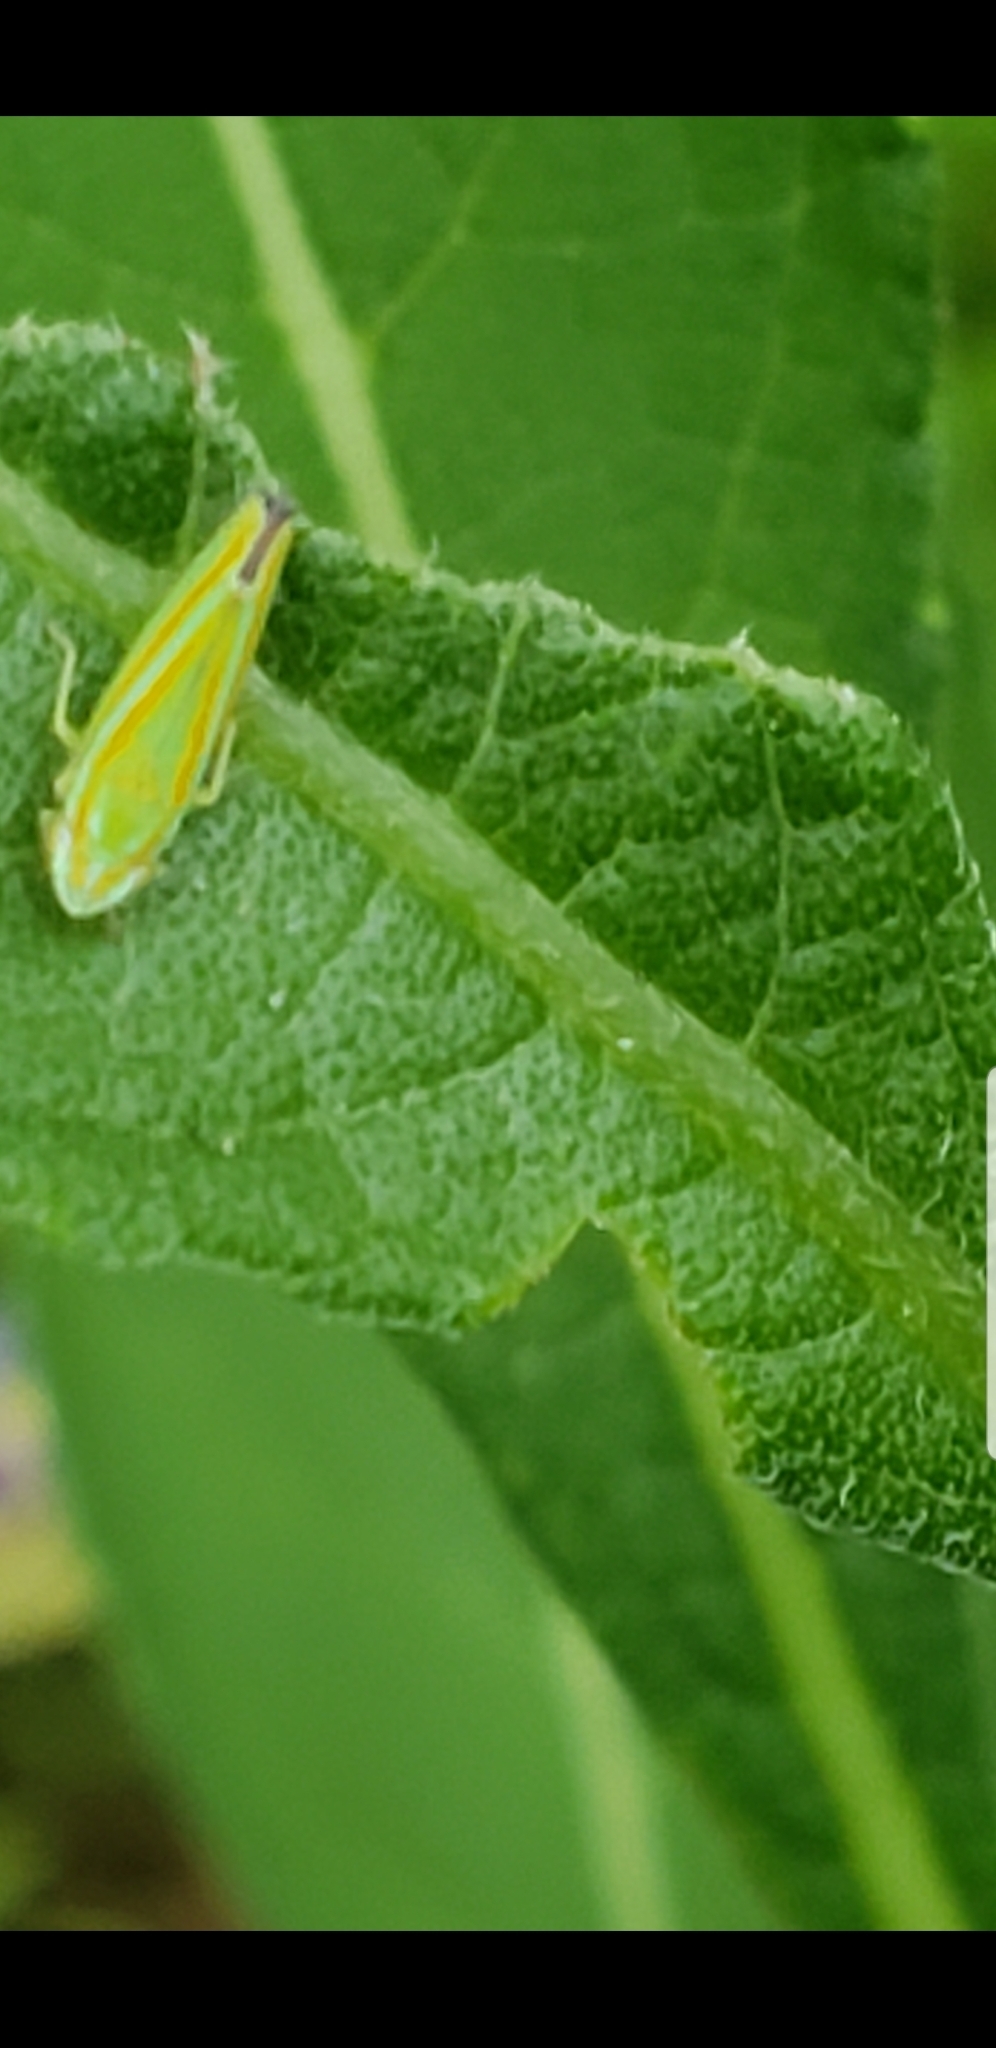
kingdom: Animalia
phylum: Arthropoda
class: Insecta
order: Hemiptera
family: Cicadellidae
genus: Graphocephala
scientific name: Graphocephala versuta
